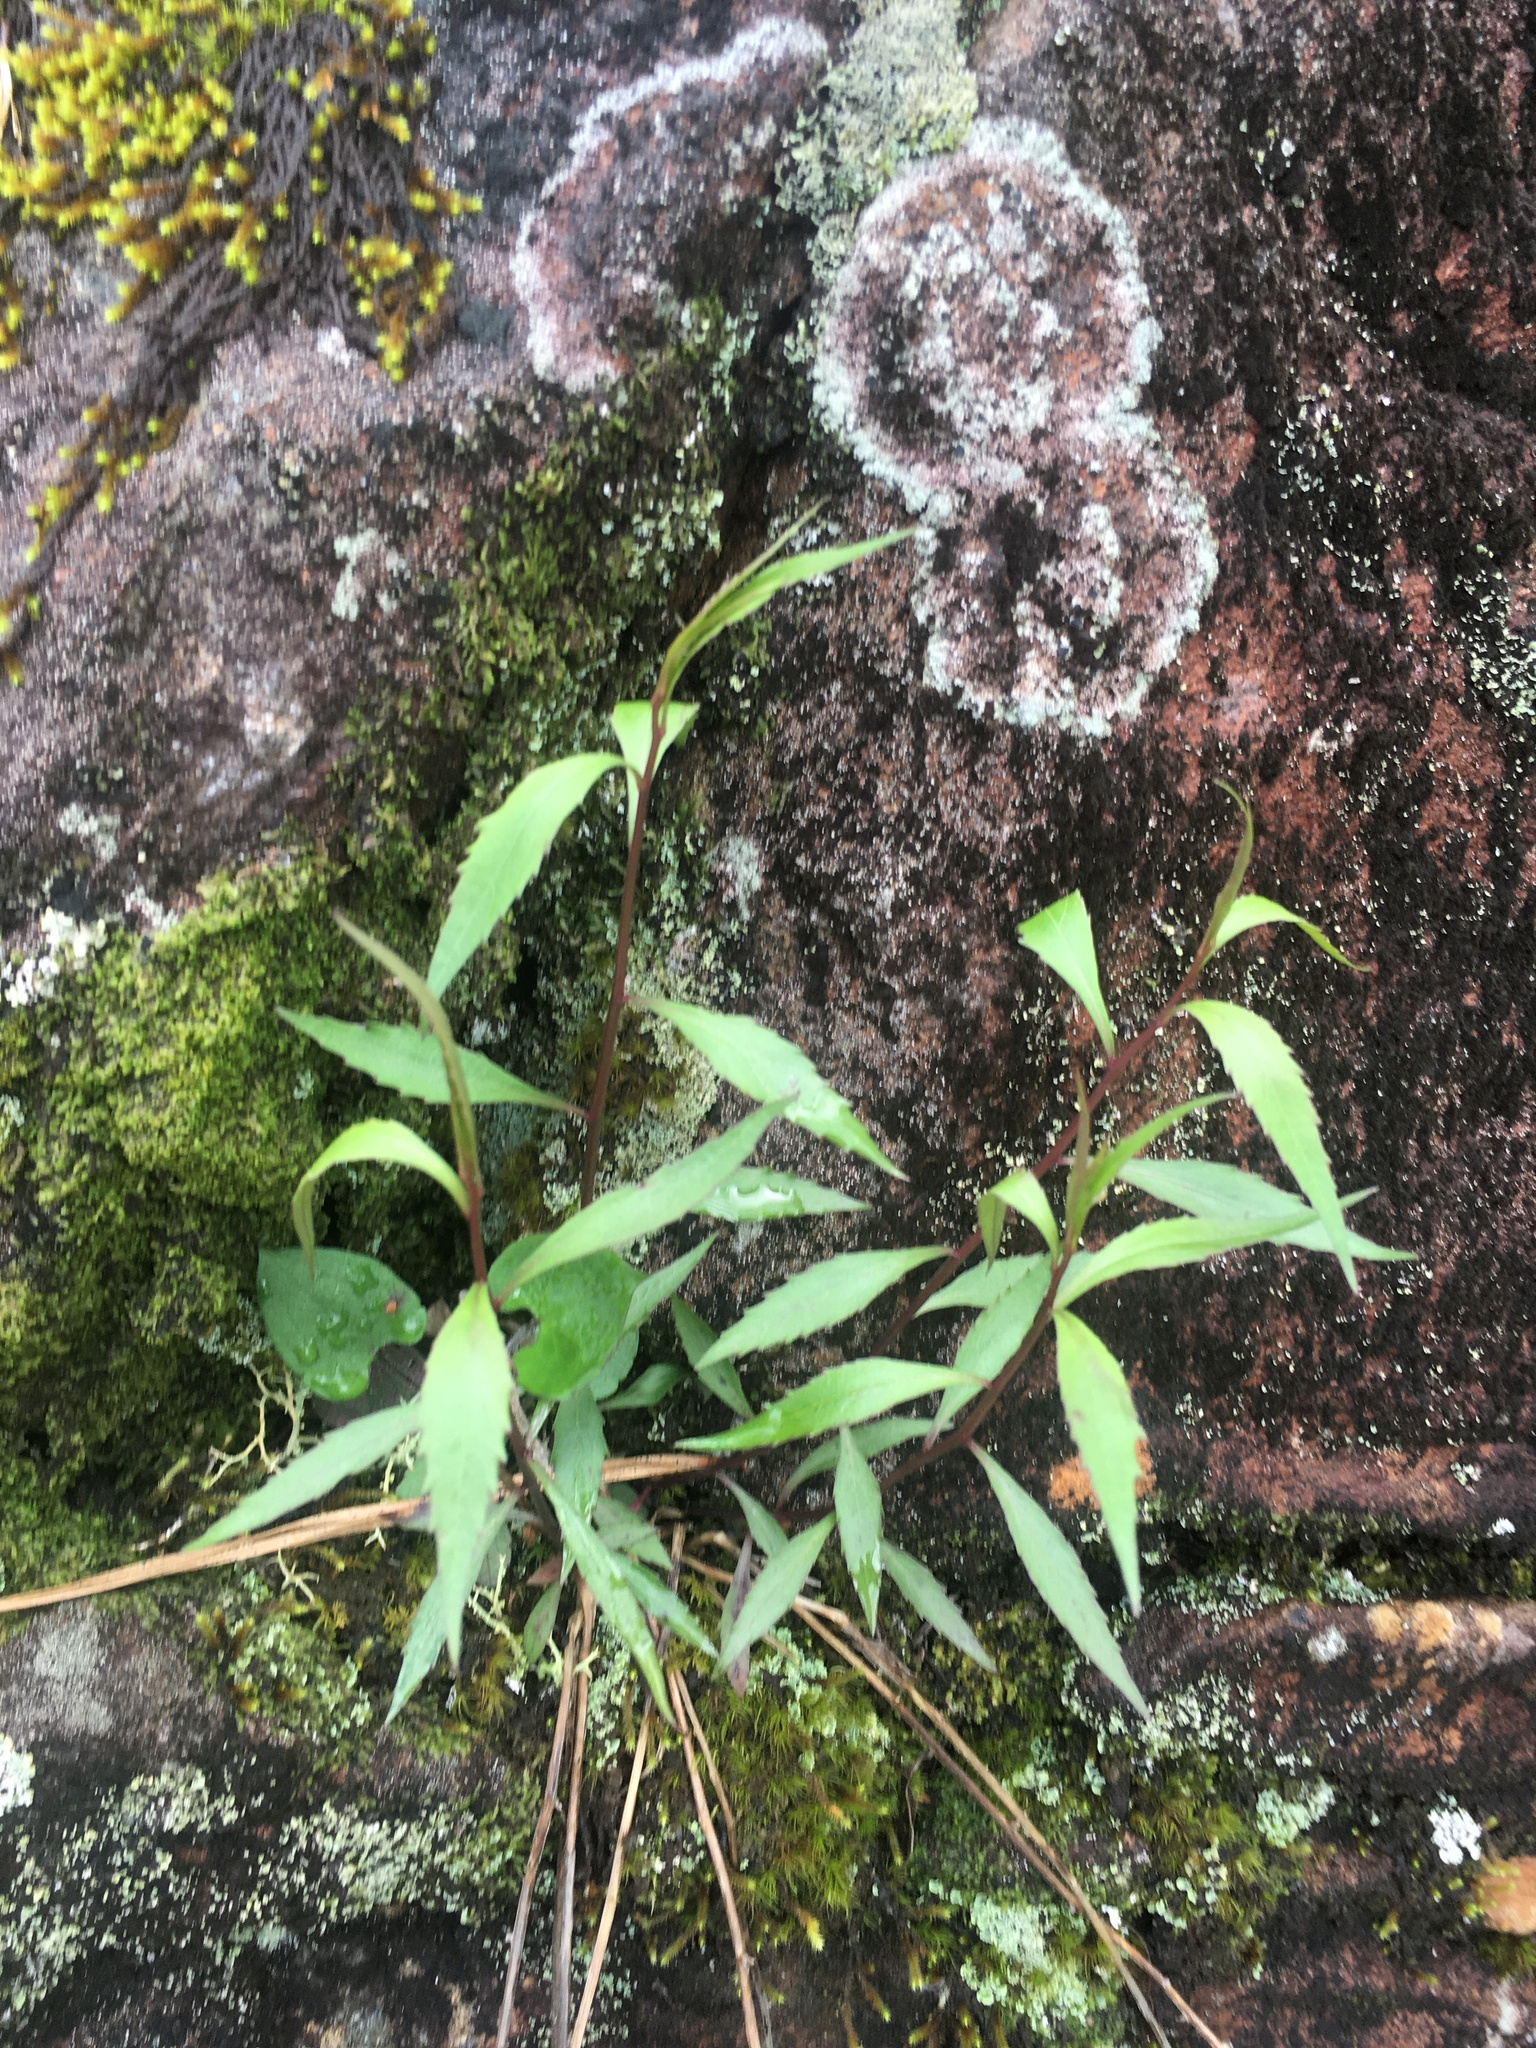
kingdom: Plantae
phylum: Tracheophyta
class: Magnoliopsida
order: Asterales
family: Campanulaceae
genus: Campanula
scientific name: Campanula divaricata
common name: Appalachian bellflower
